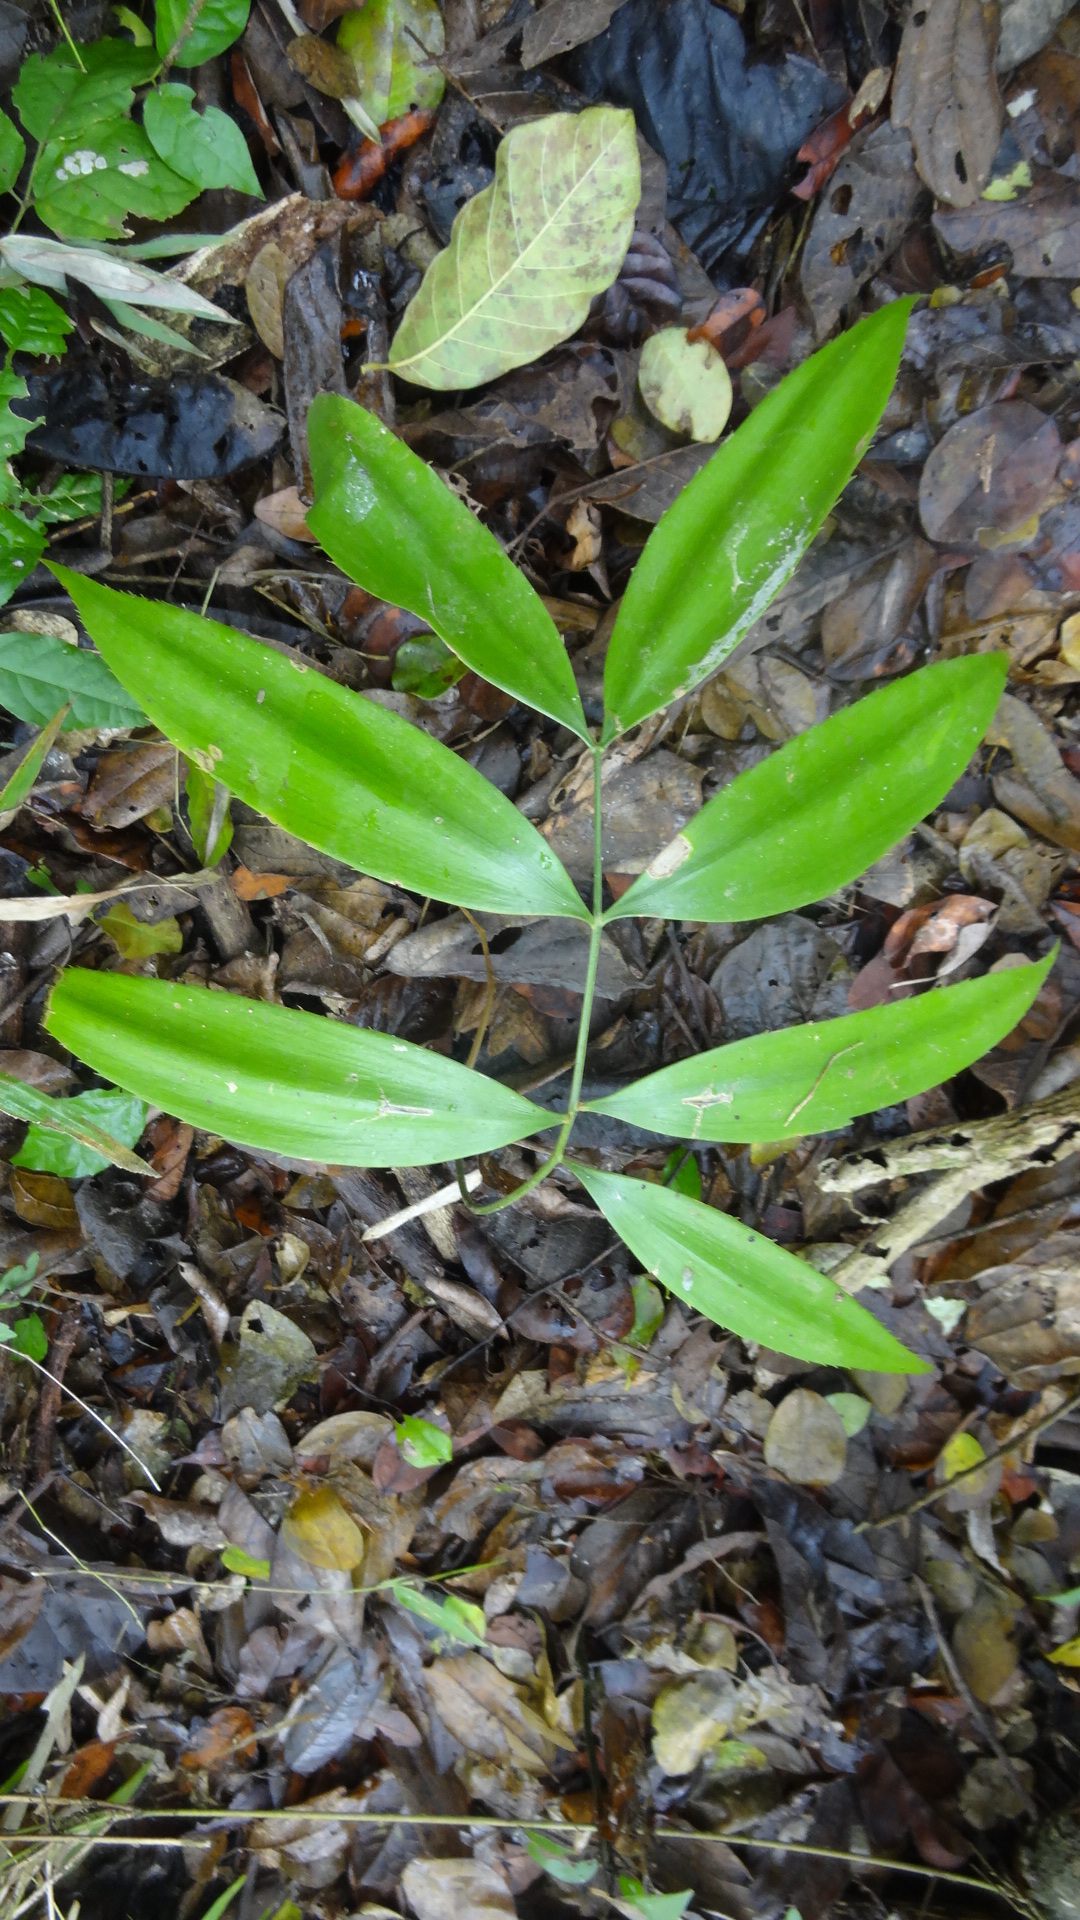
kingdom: Plantae
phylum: Tracheophyta
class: Cycadopsida
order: Cycadales
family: Zamiaceae
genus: Zamia
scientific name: Zamia lindenii
